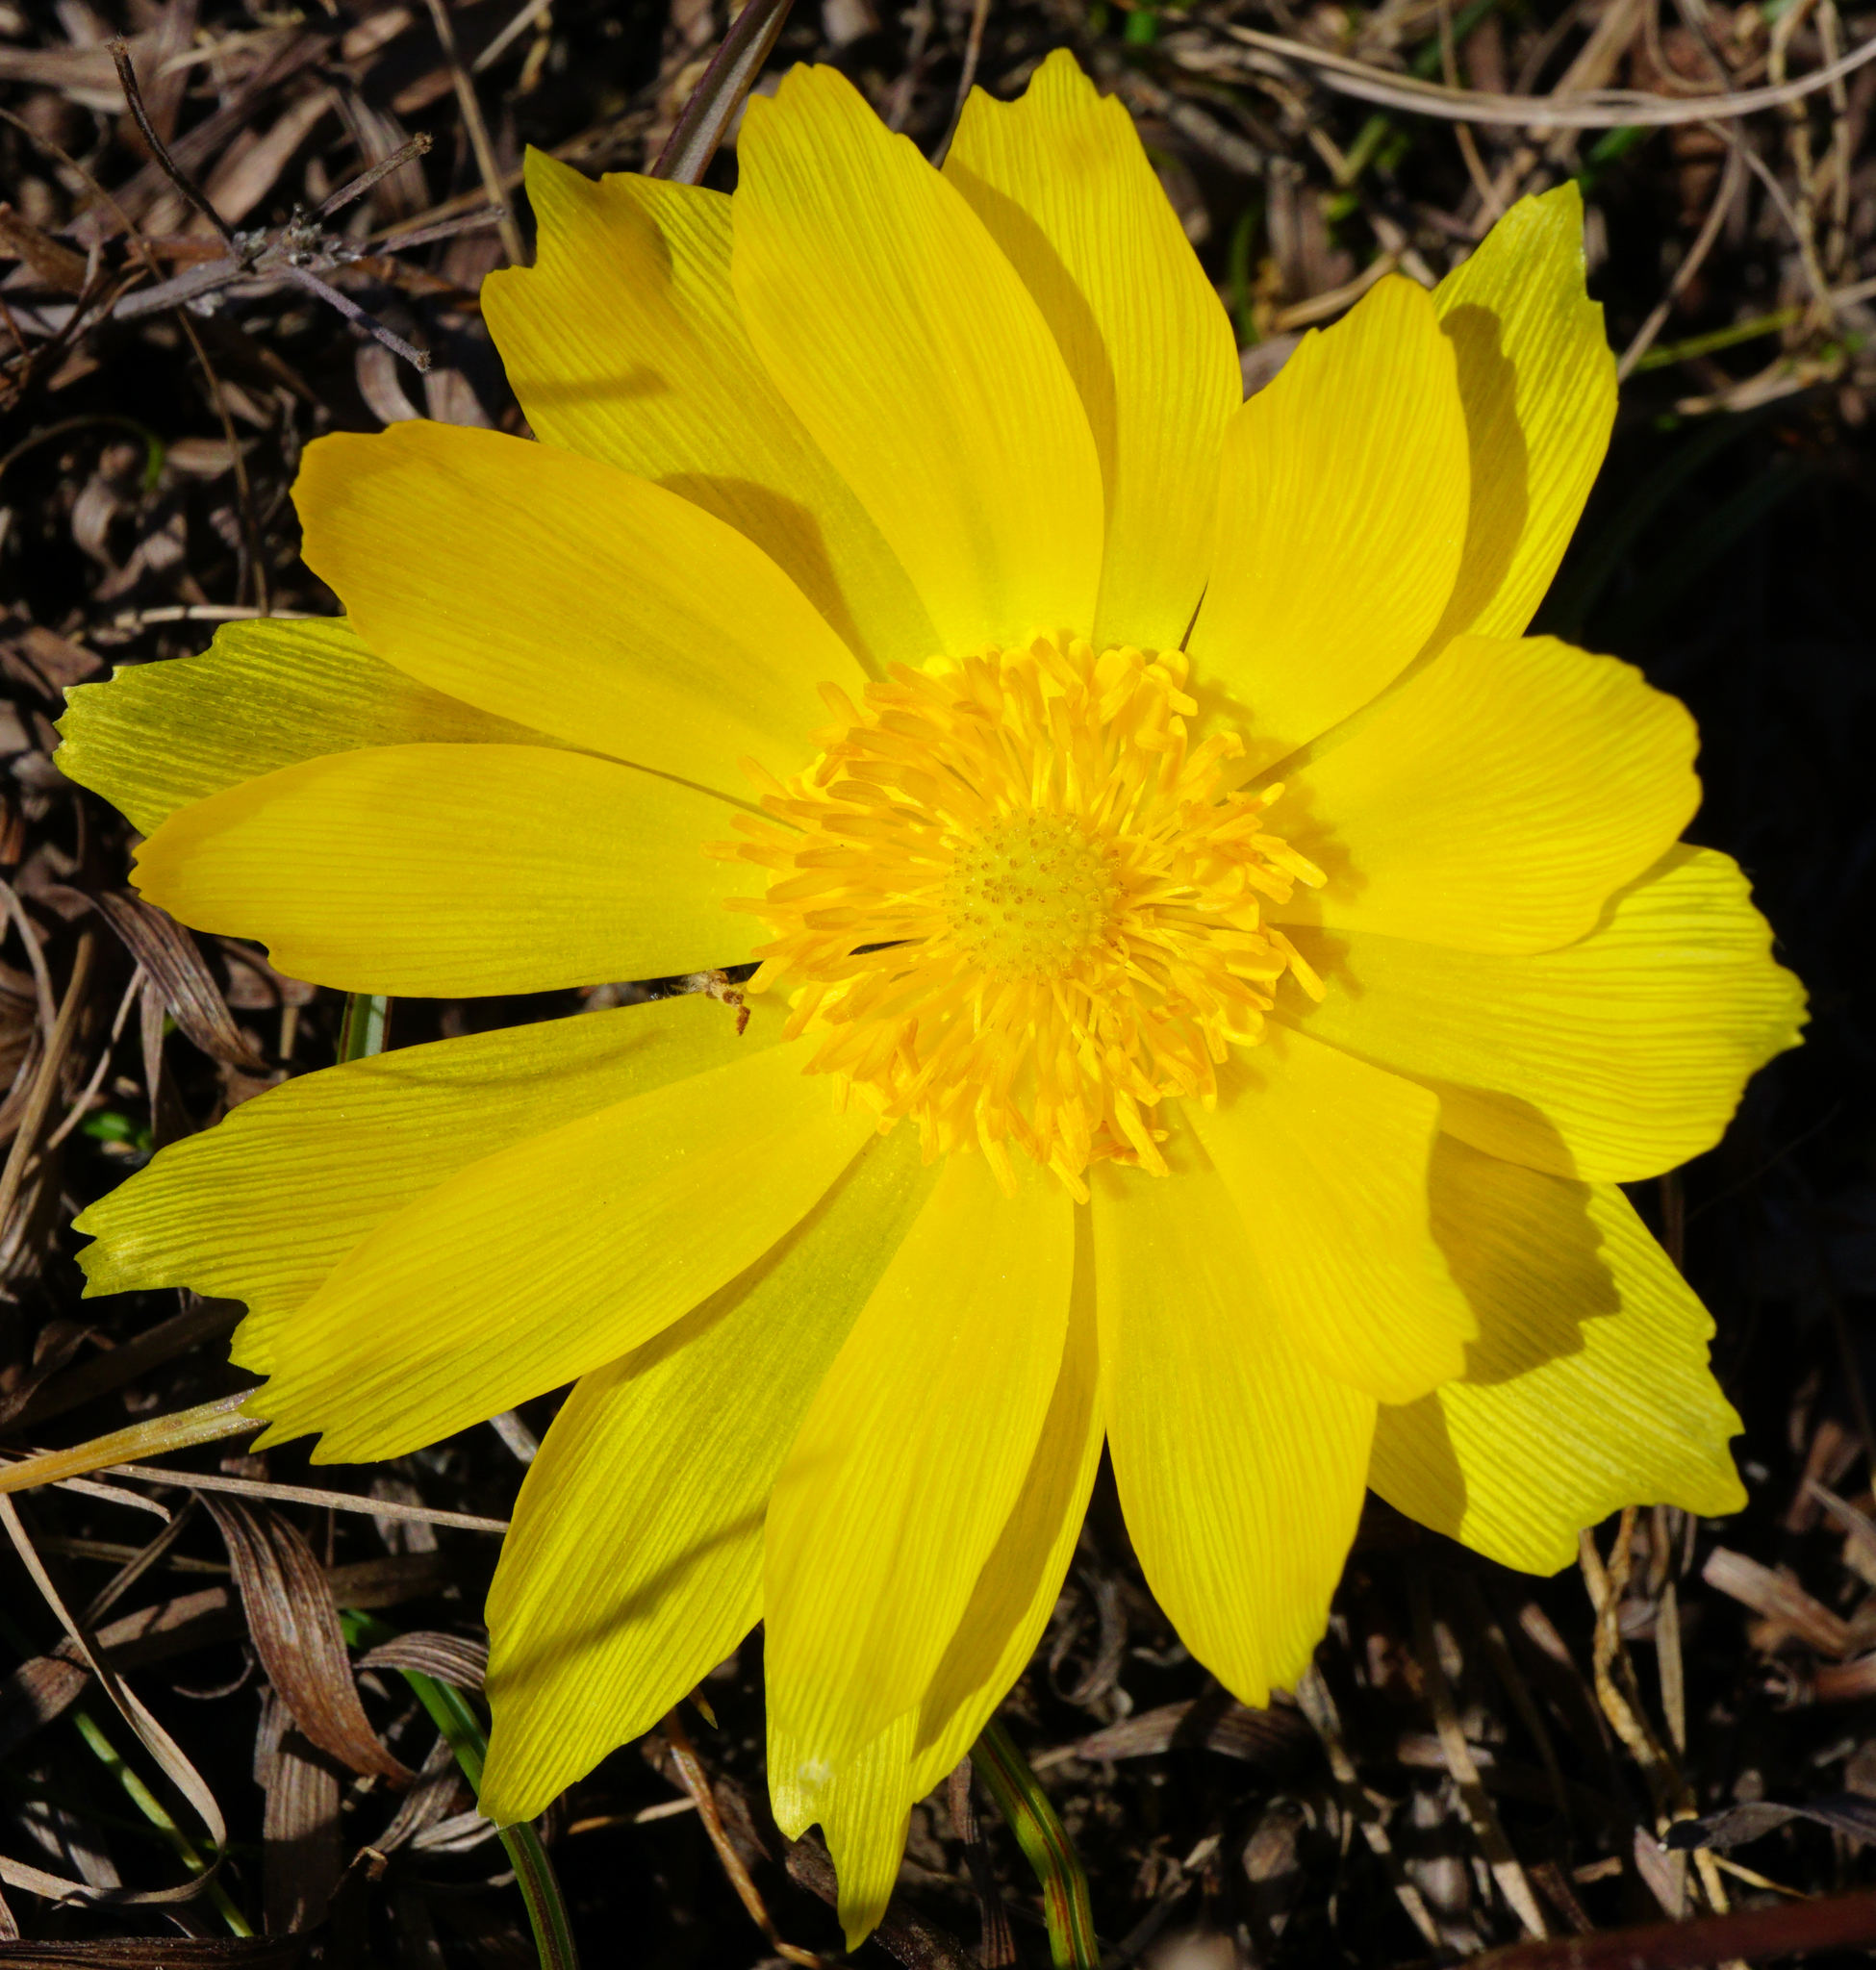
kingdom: Plantae
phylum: Tracheophyta
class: Magnoliopsida
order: Ranunculales
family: Ranunculaceae
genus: Adonis
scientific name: Adonis vernalis
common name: Yellow pheasants-eye
